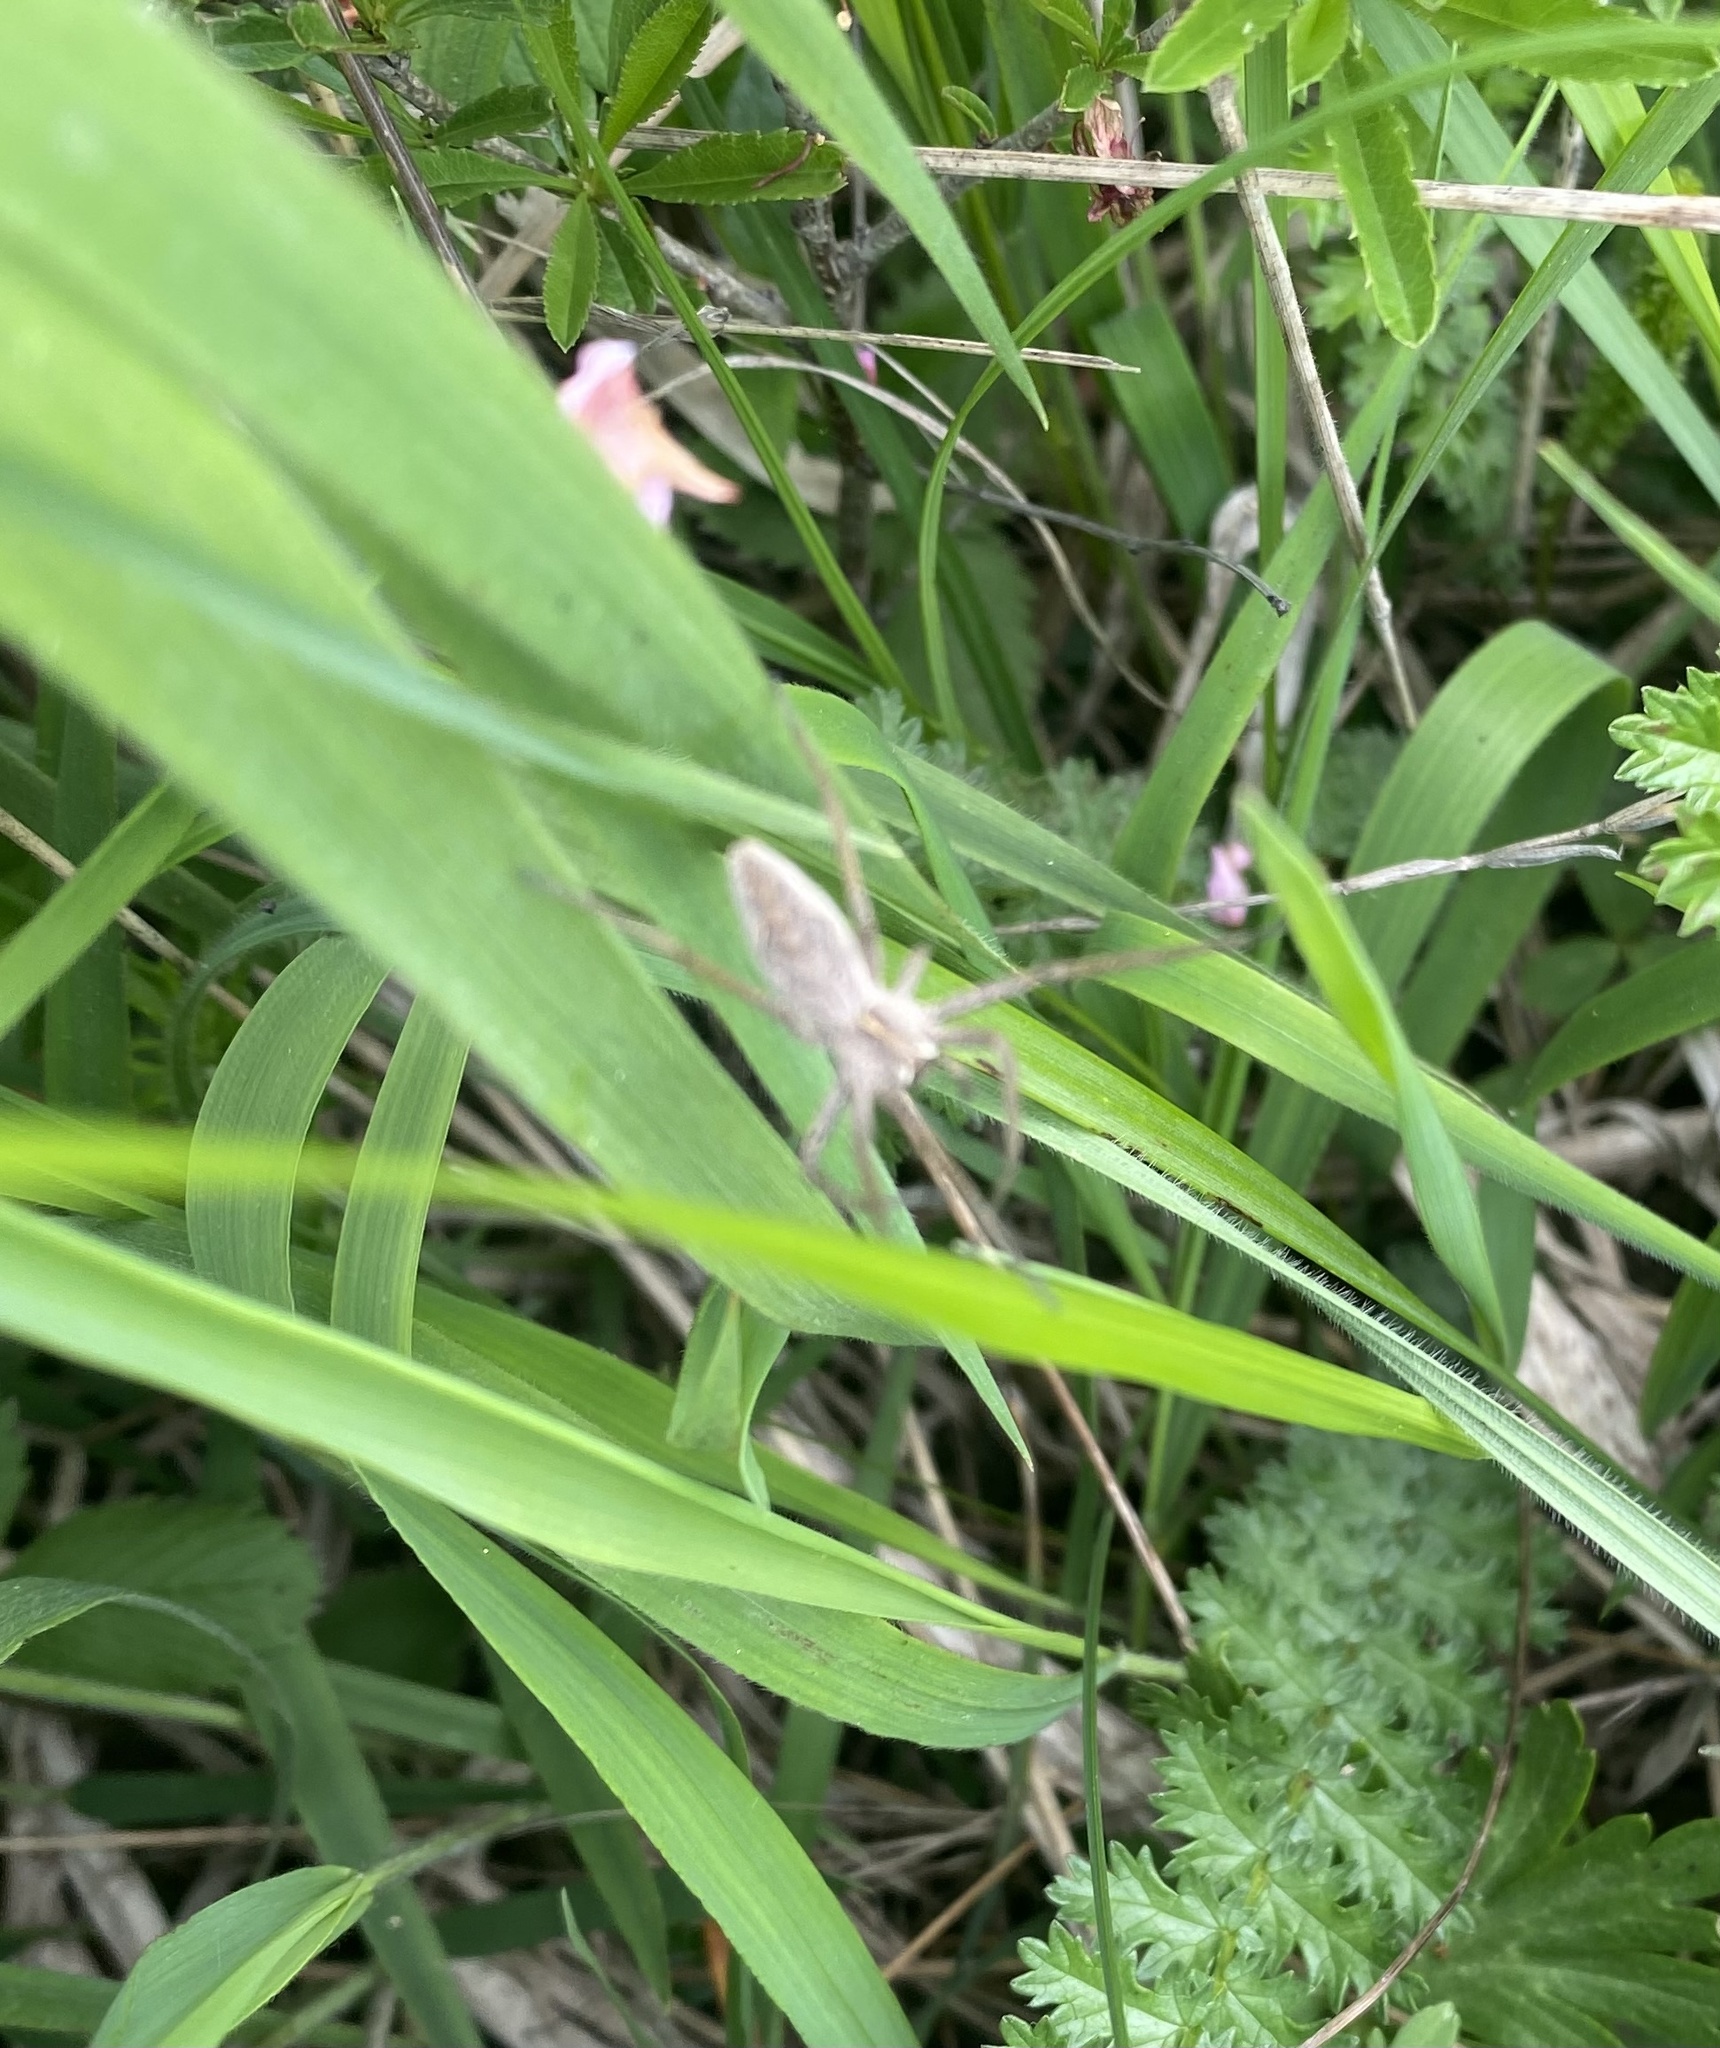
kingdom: Animalia
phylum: Arthropoda
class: Arachnida
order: Araneae
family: Pisauridae
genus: Pisaura
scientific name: Pisaura
